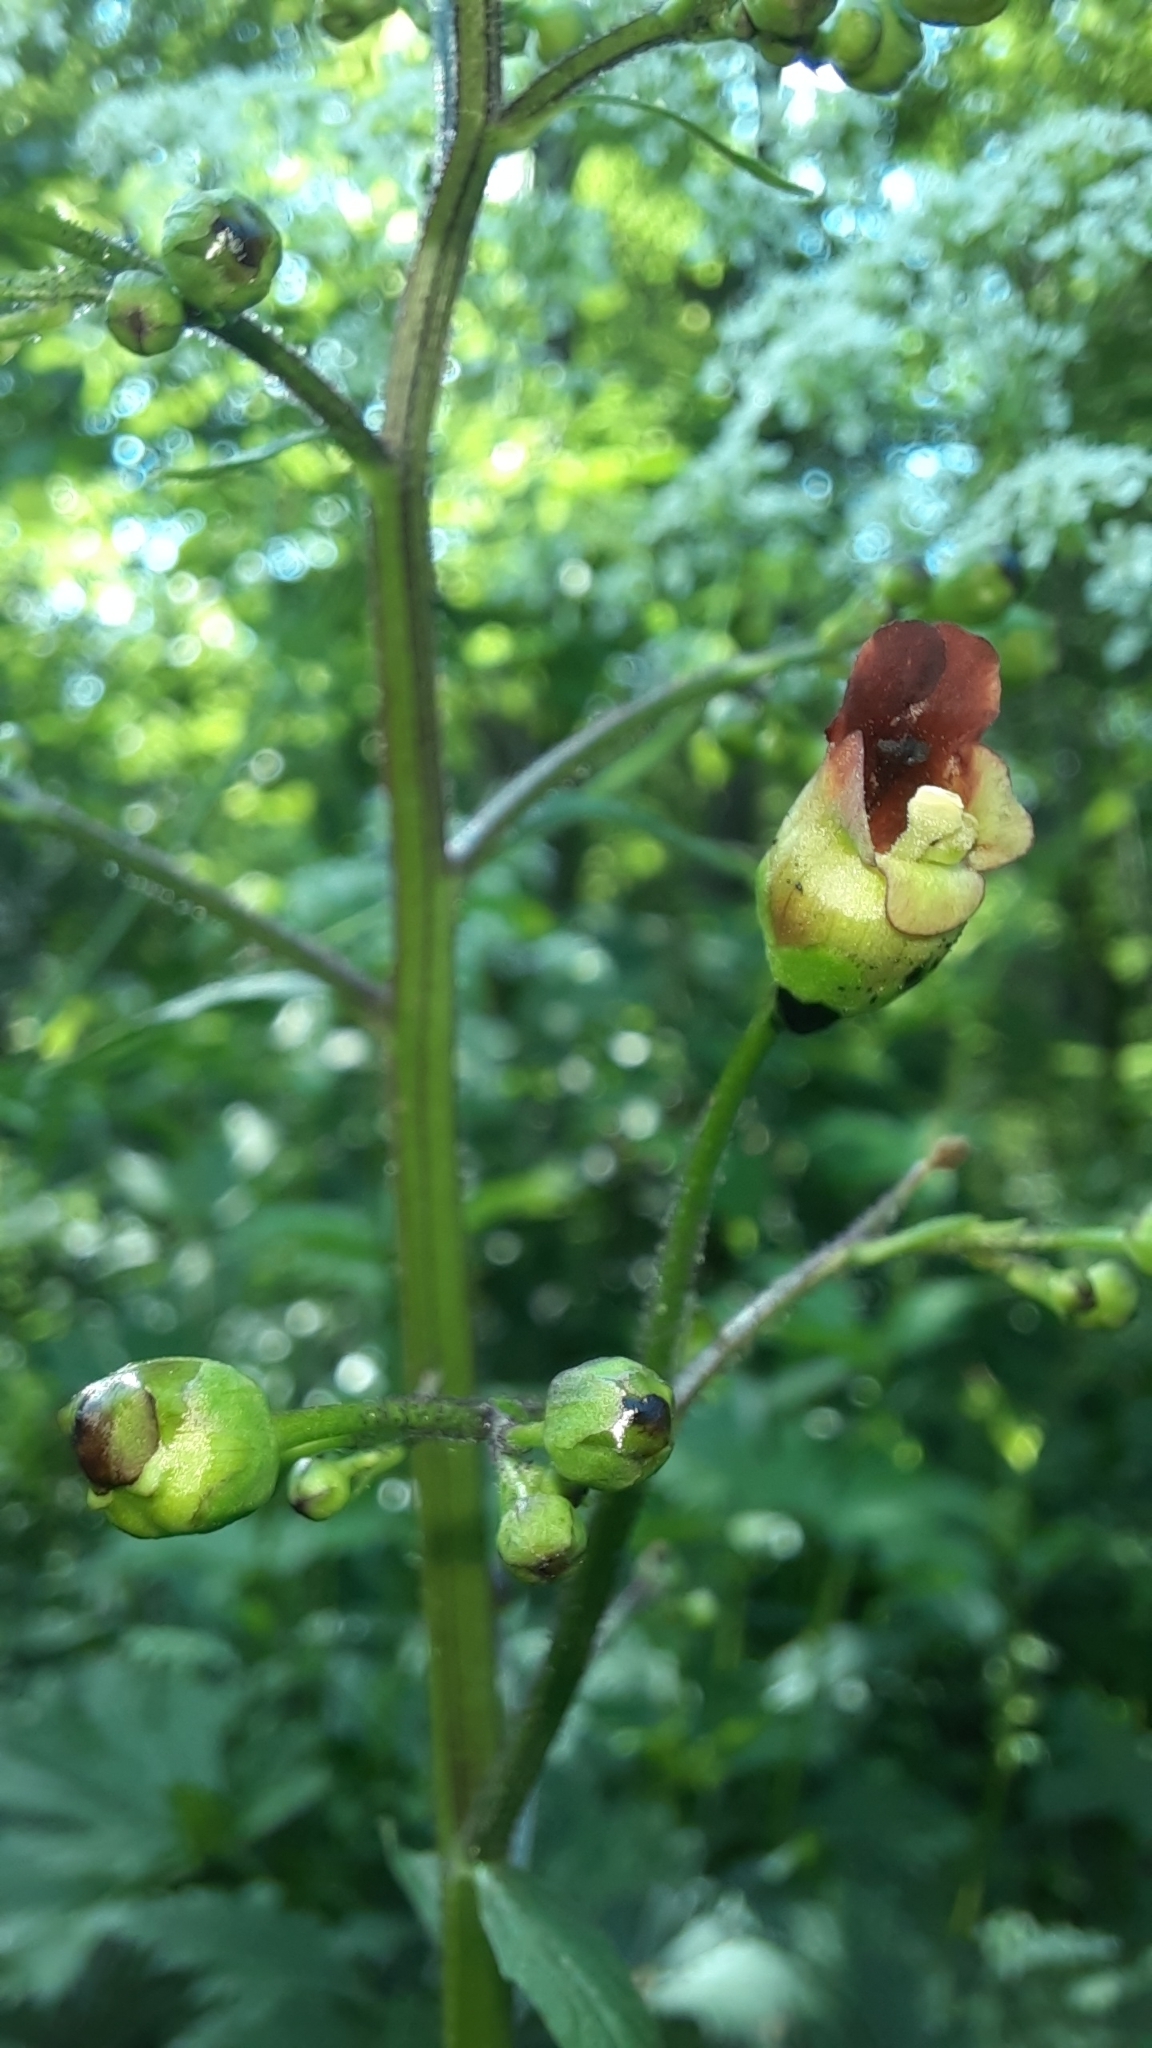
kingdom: Plantae
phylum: Tracheophyta
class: Magnoliopsida
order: Lamiales
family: Scrophulariaceae
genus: Scrophularia
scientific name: Scrophularia nodosa
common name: Common figwort
